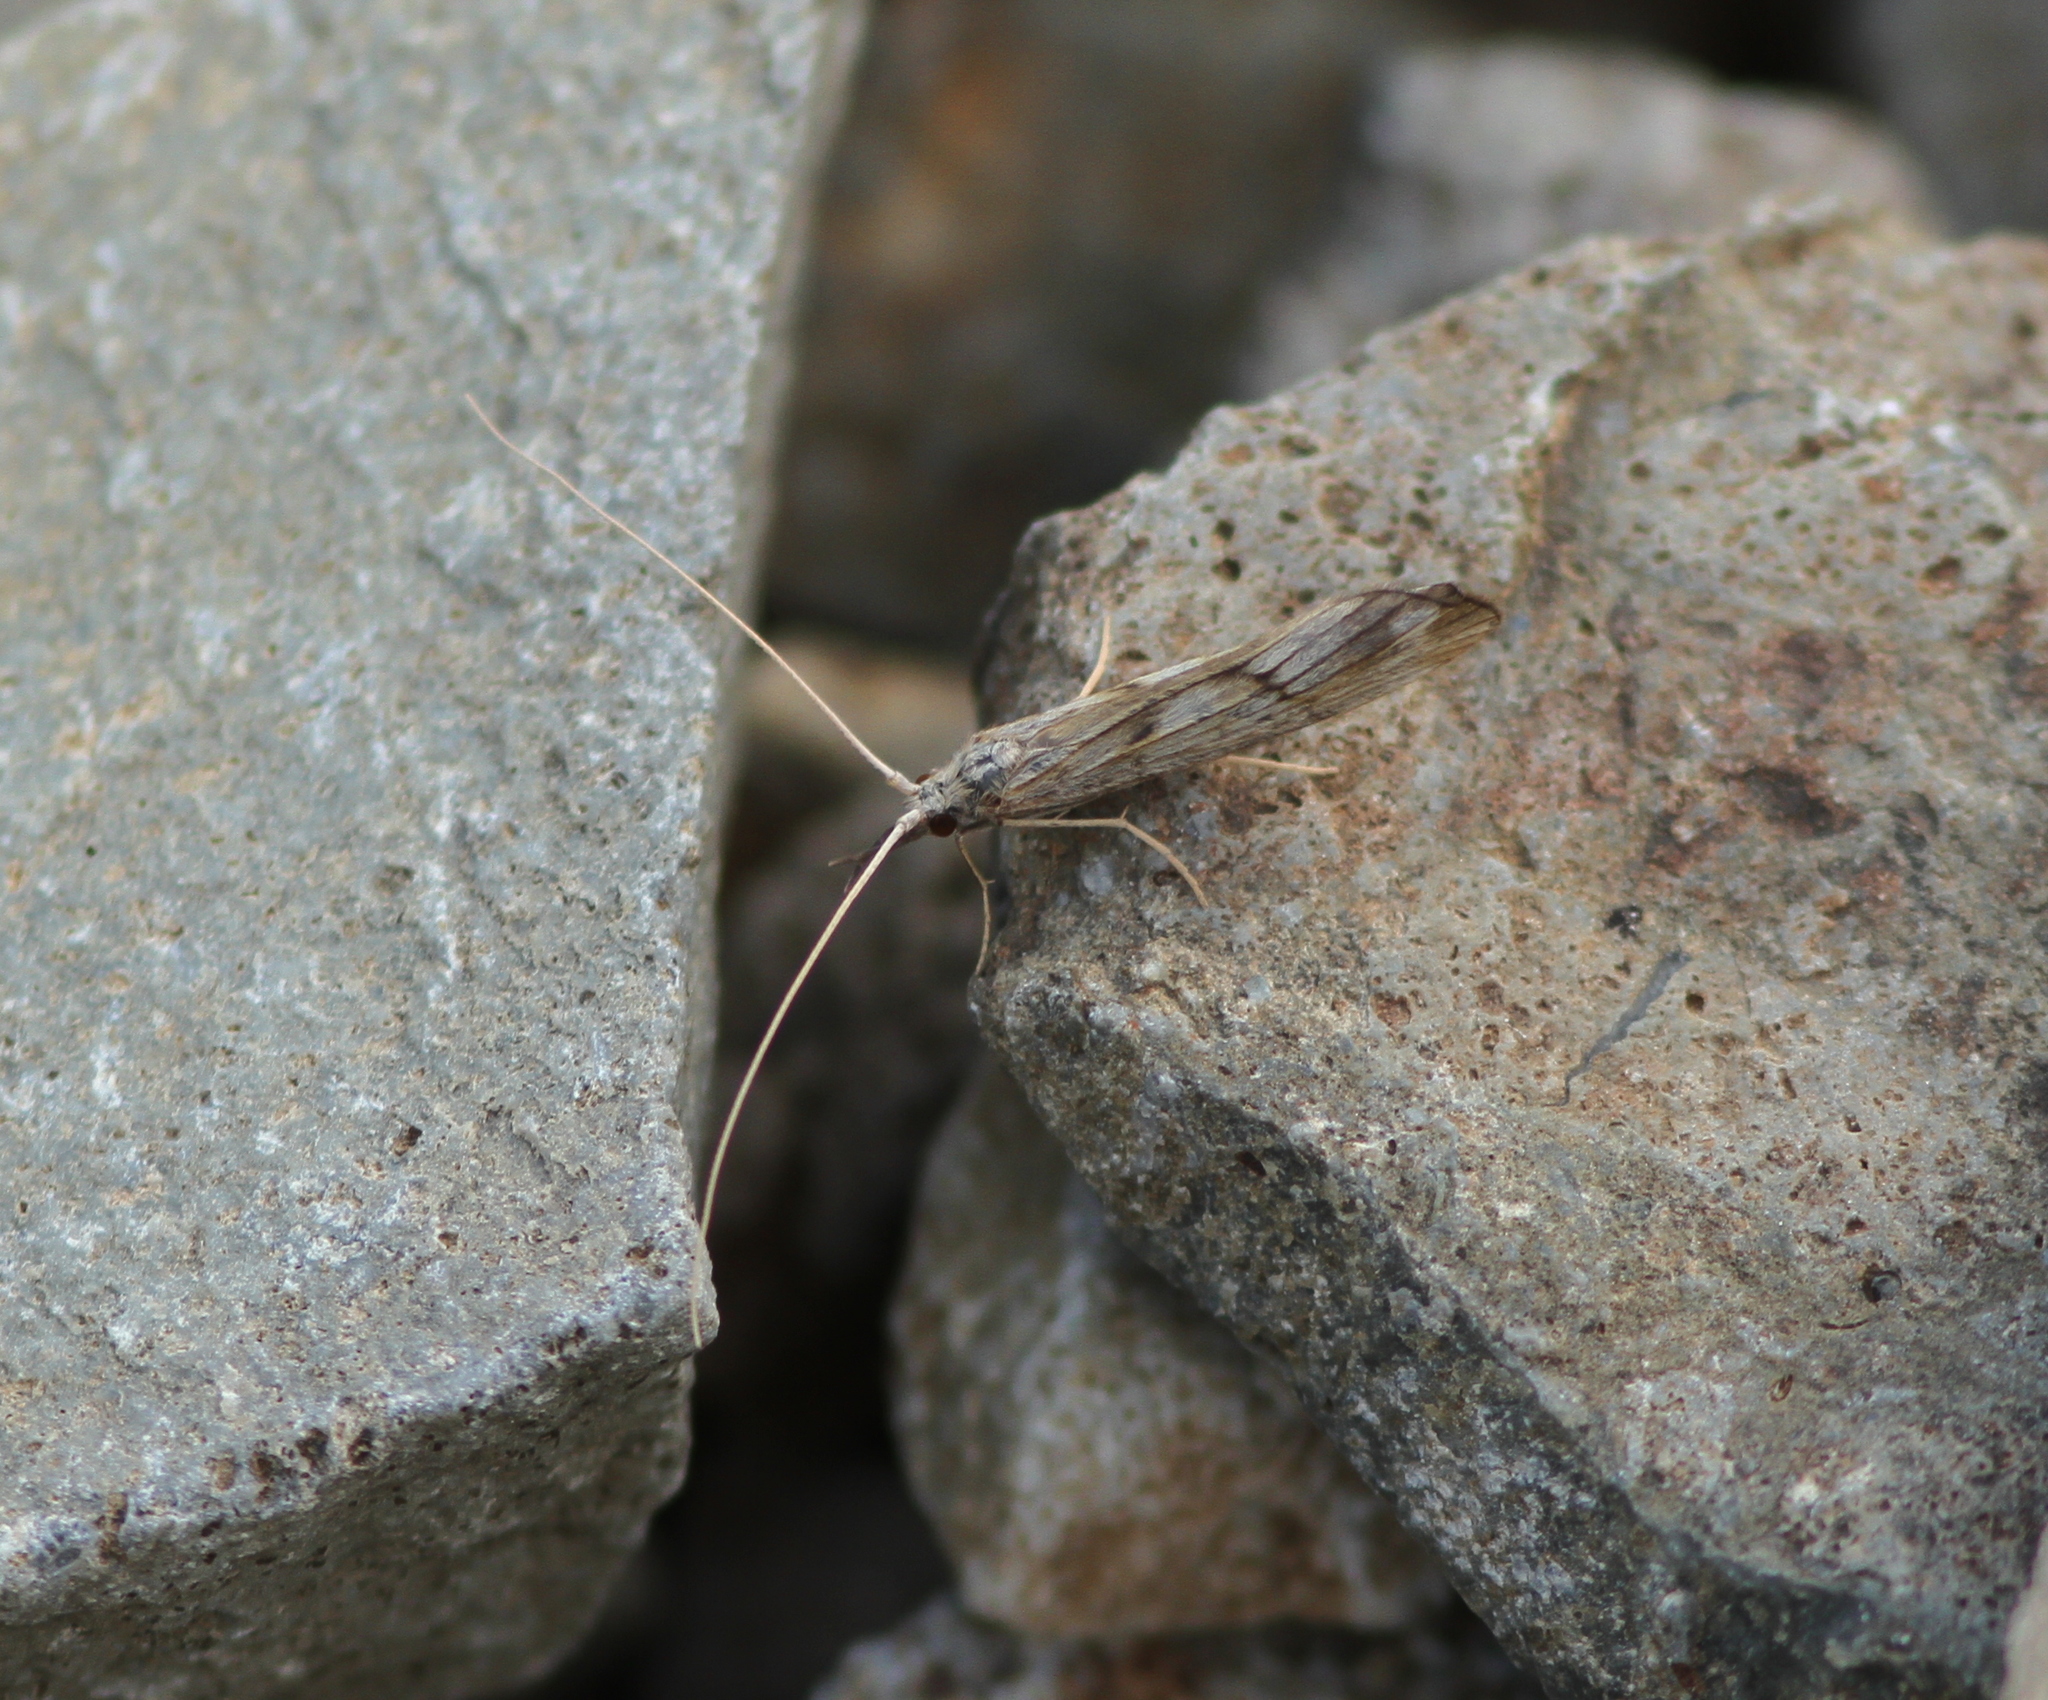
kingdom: Animalia
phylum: Arthropoda
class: Insecta
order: Trichoptera
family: Odontoceridae
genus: Odontocerum
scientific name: Odontocerum albicorne
